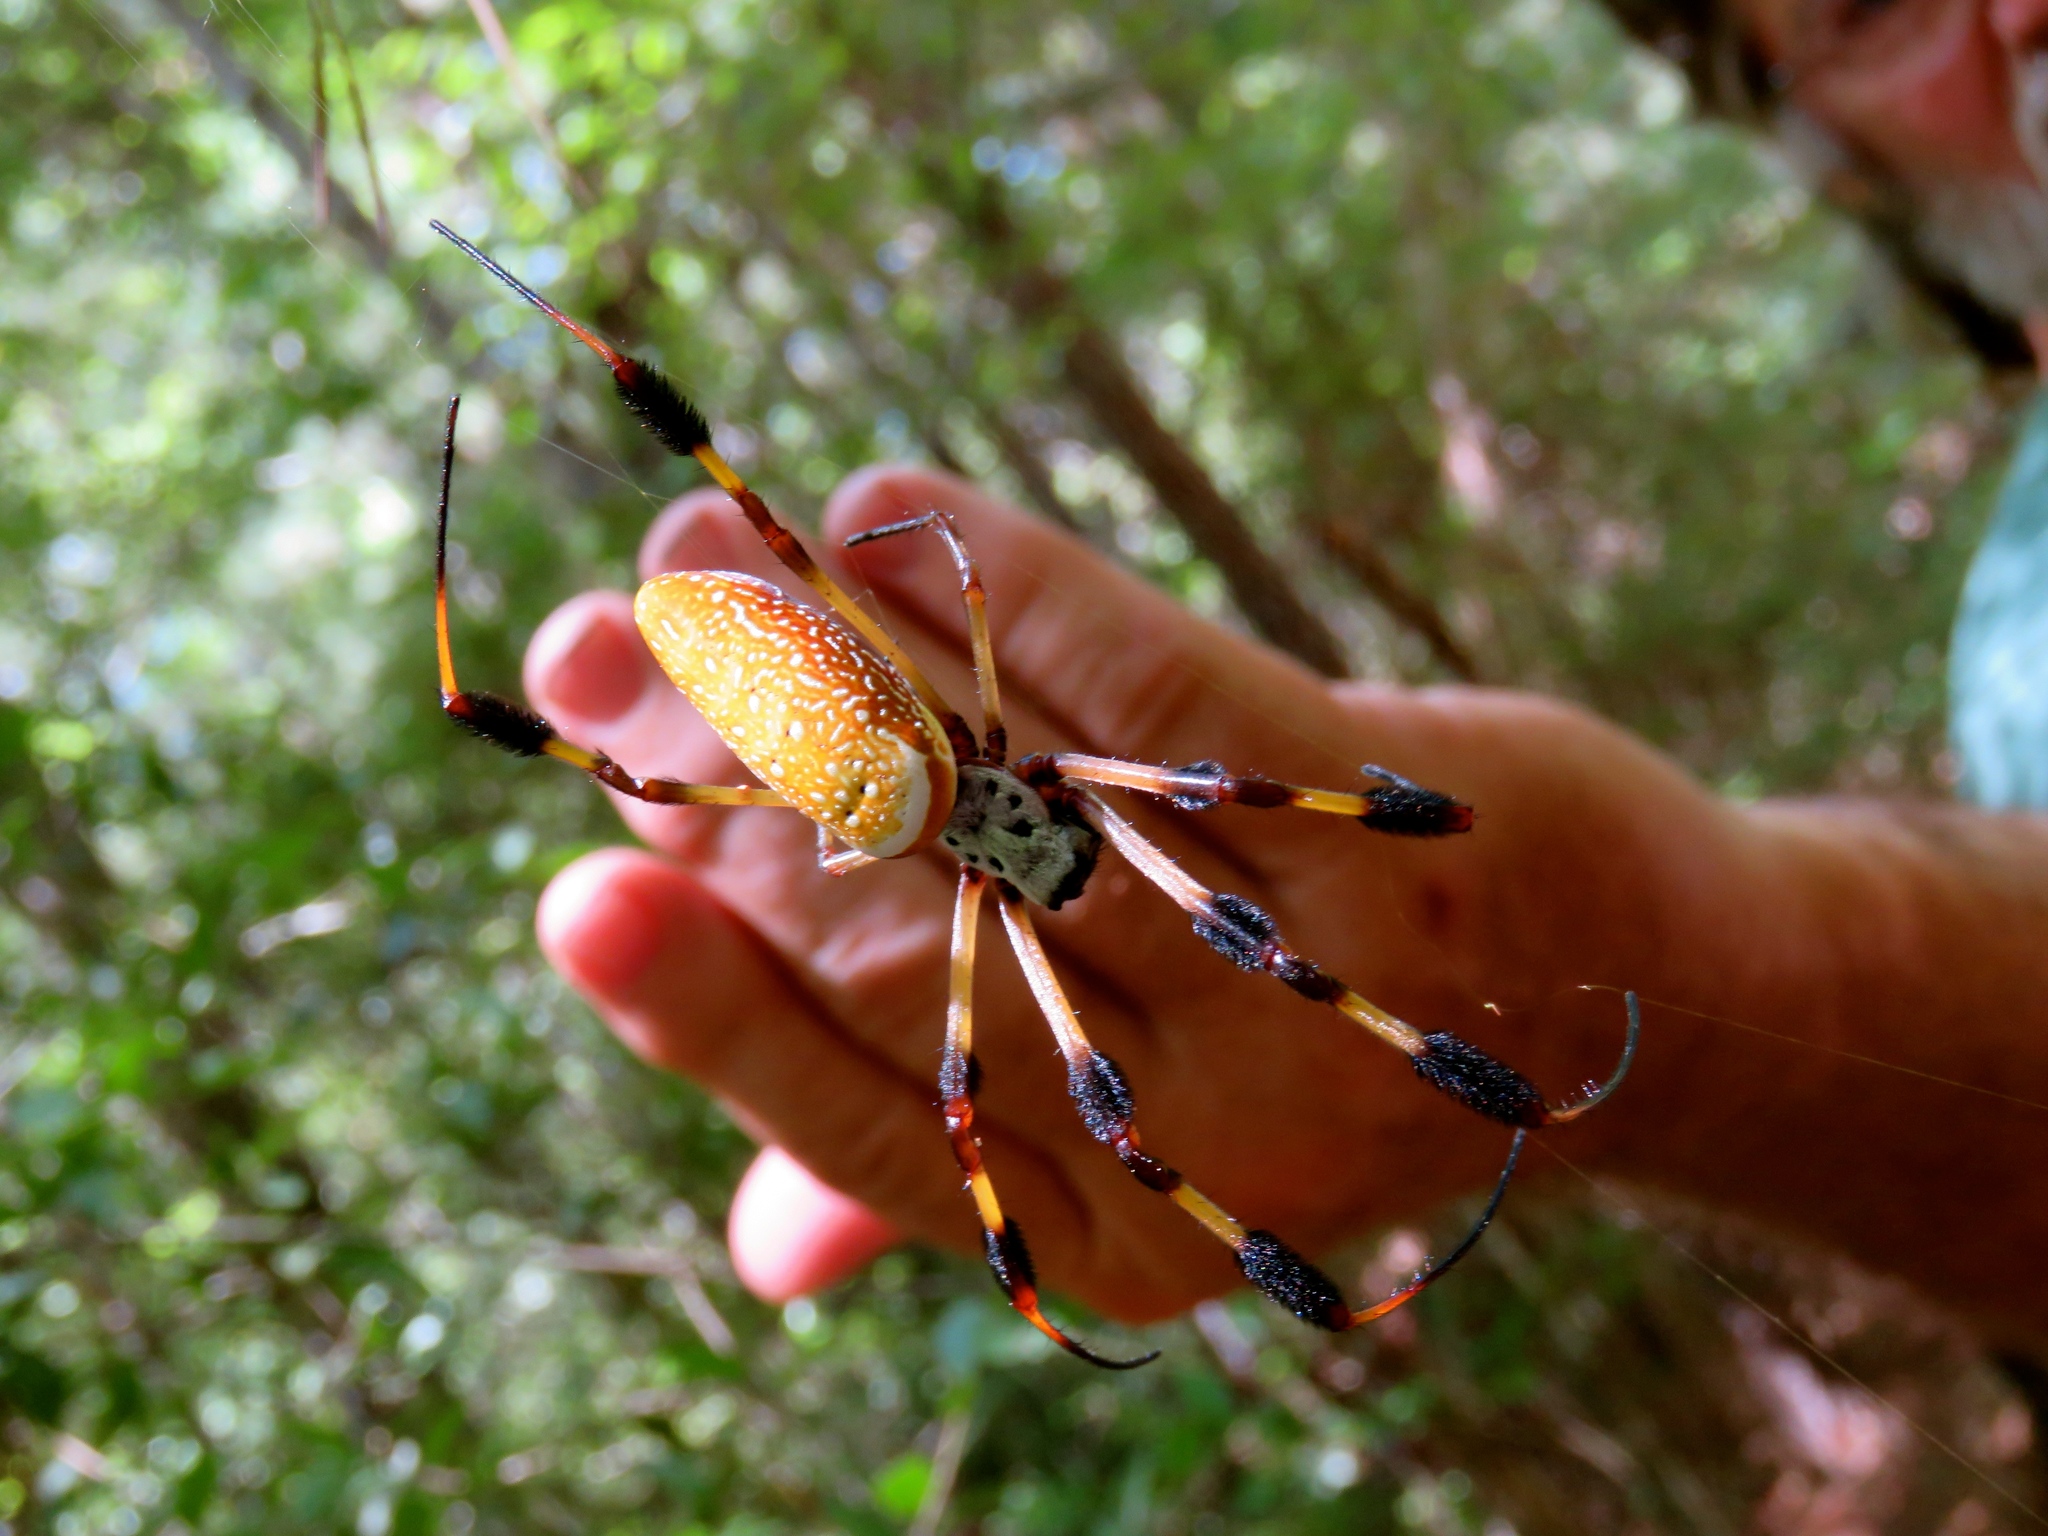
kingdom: Animalia
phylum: Arthropoda
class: Arachnida
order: Araneae
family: Araneidae
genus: Trichonephila
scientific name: Trichonephila clavipes
